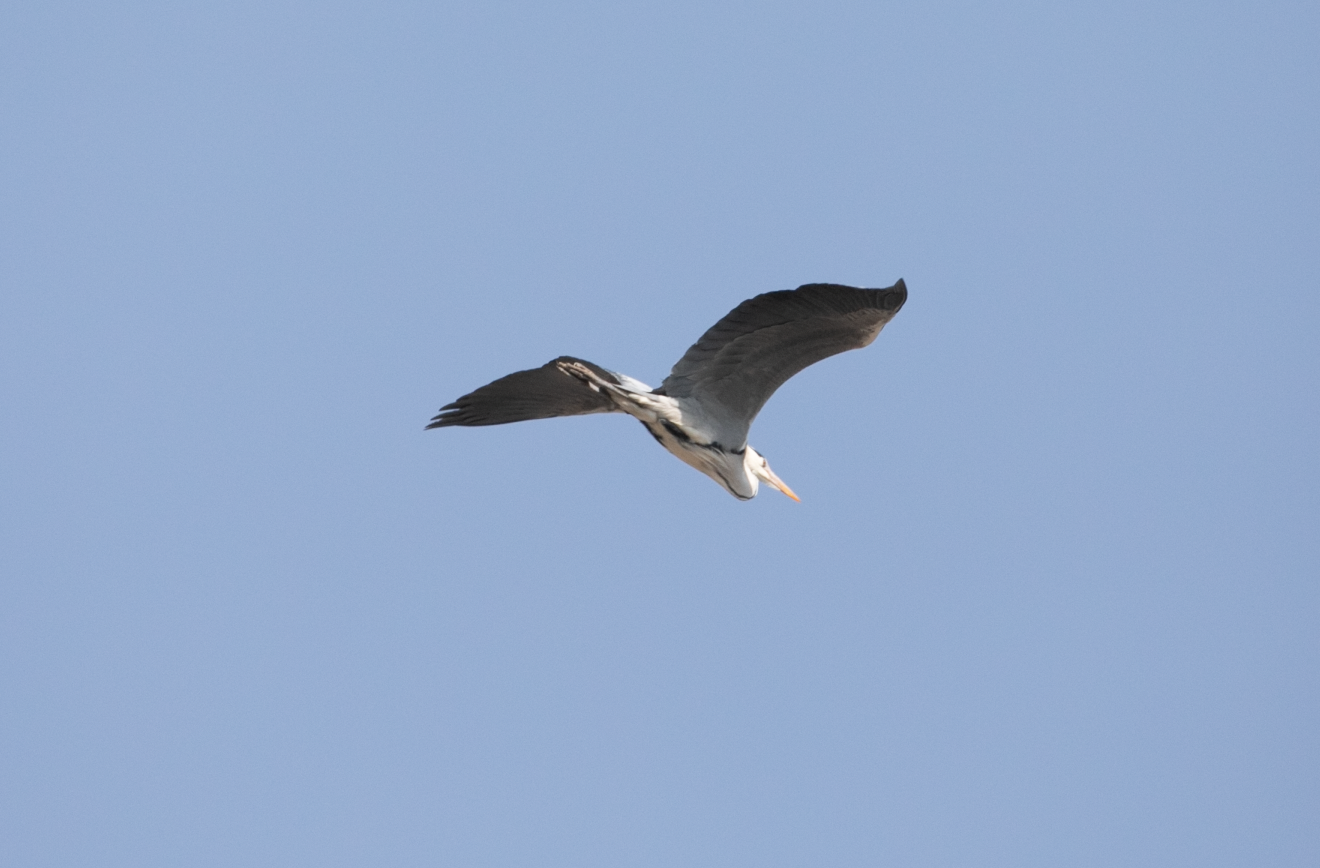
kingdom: Animalia
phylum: Chordata
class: Aves
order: Pelecaniformes
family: Ardeidae
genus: Ardea
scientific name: Ardea cinerea
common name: Grey heron
